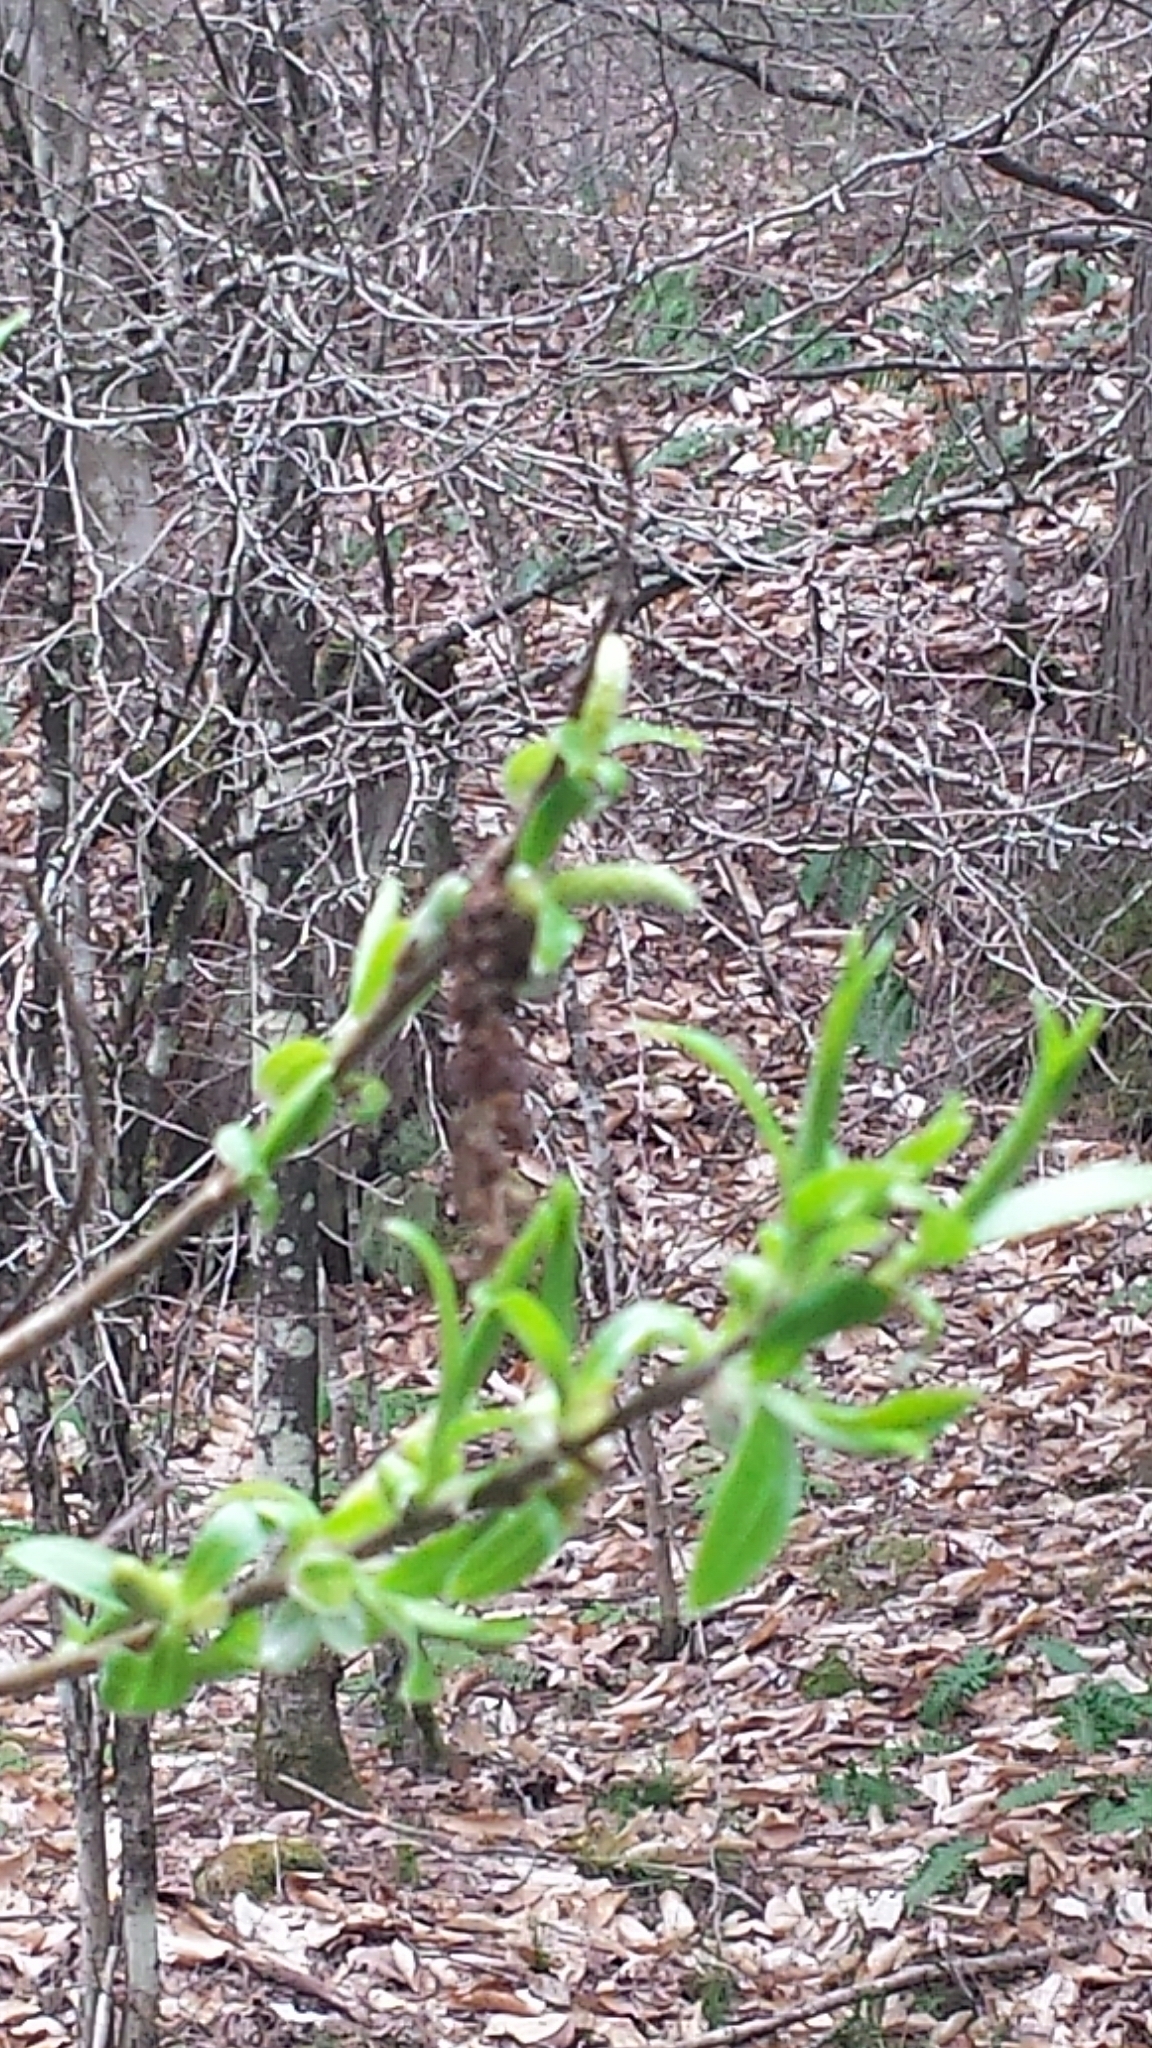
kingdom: Plantae
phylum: Tracheophyta
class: Magnoliopsida
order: Malpighiales
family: Salicaceae
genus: Salix
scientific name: Salix nigra
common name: Black willow
